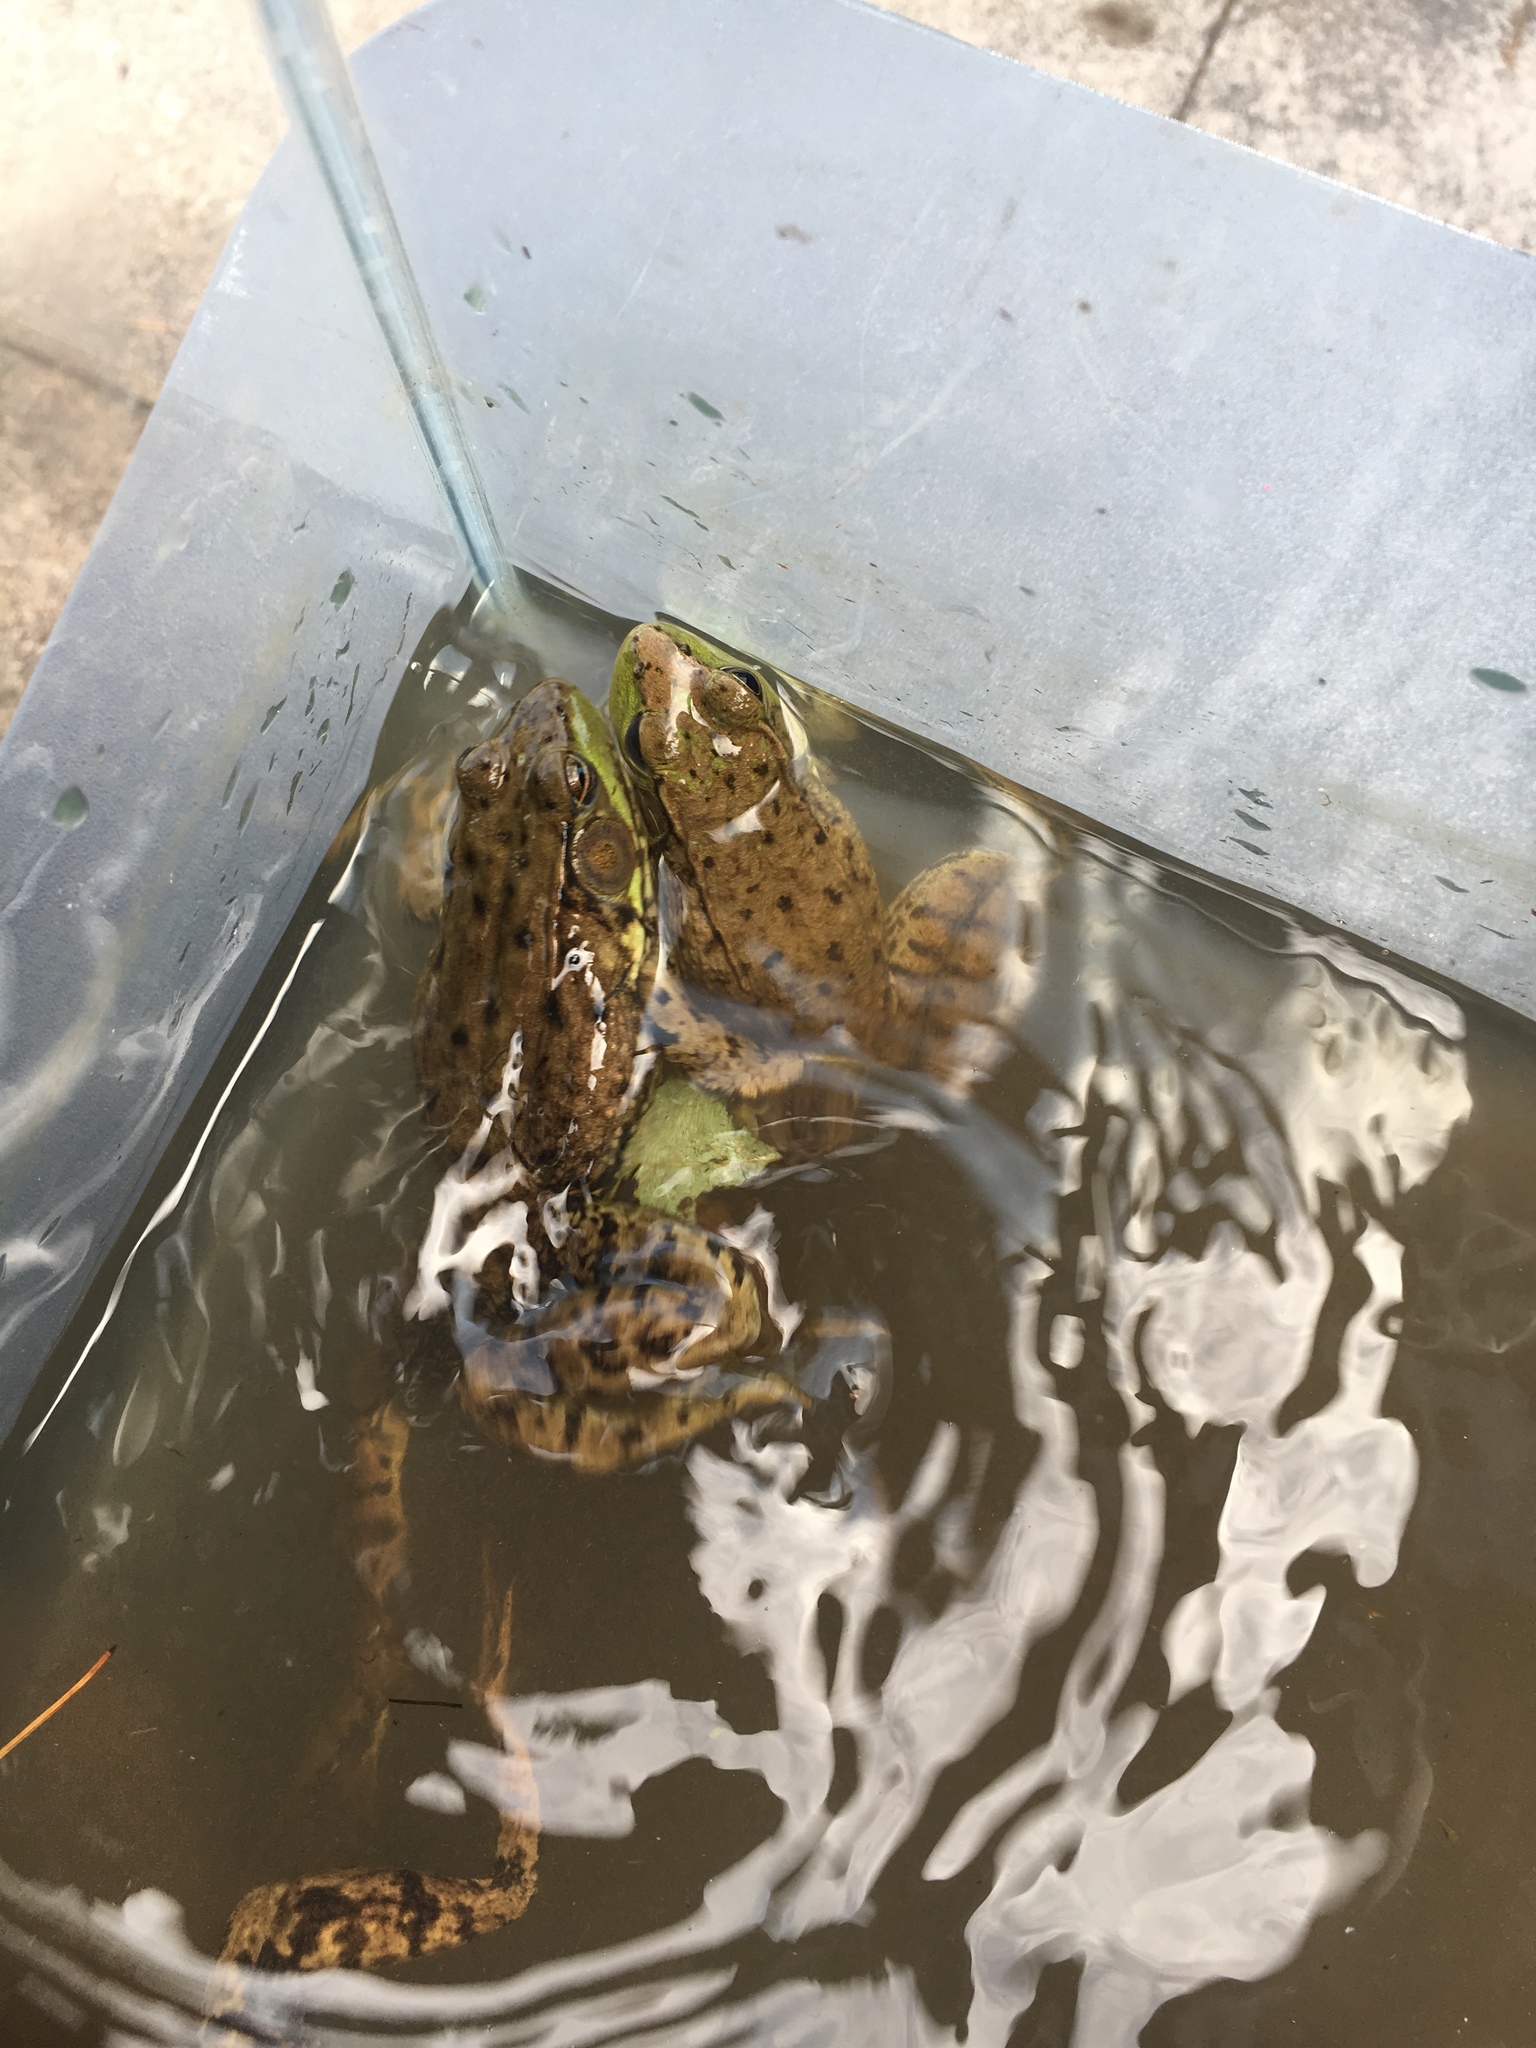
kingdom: Animalia
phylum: Chordata
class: Amphibia
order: Anura
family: Ranidae
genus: Lithobates
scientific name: Lithobates clamitans
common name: Green frog
